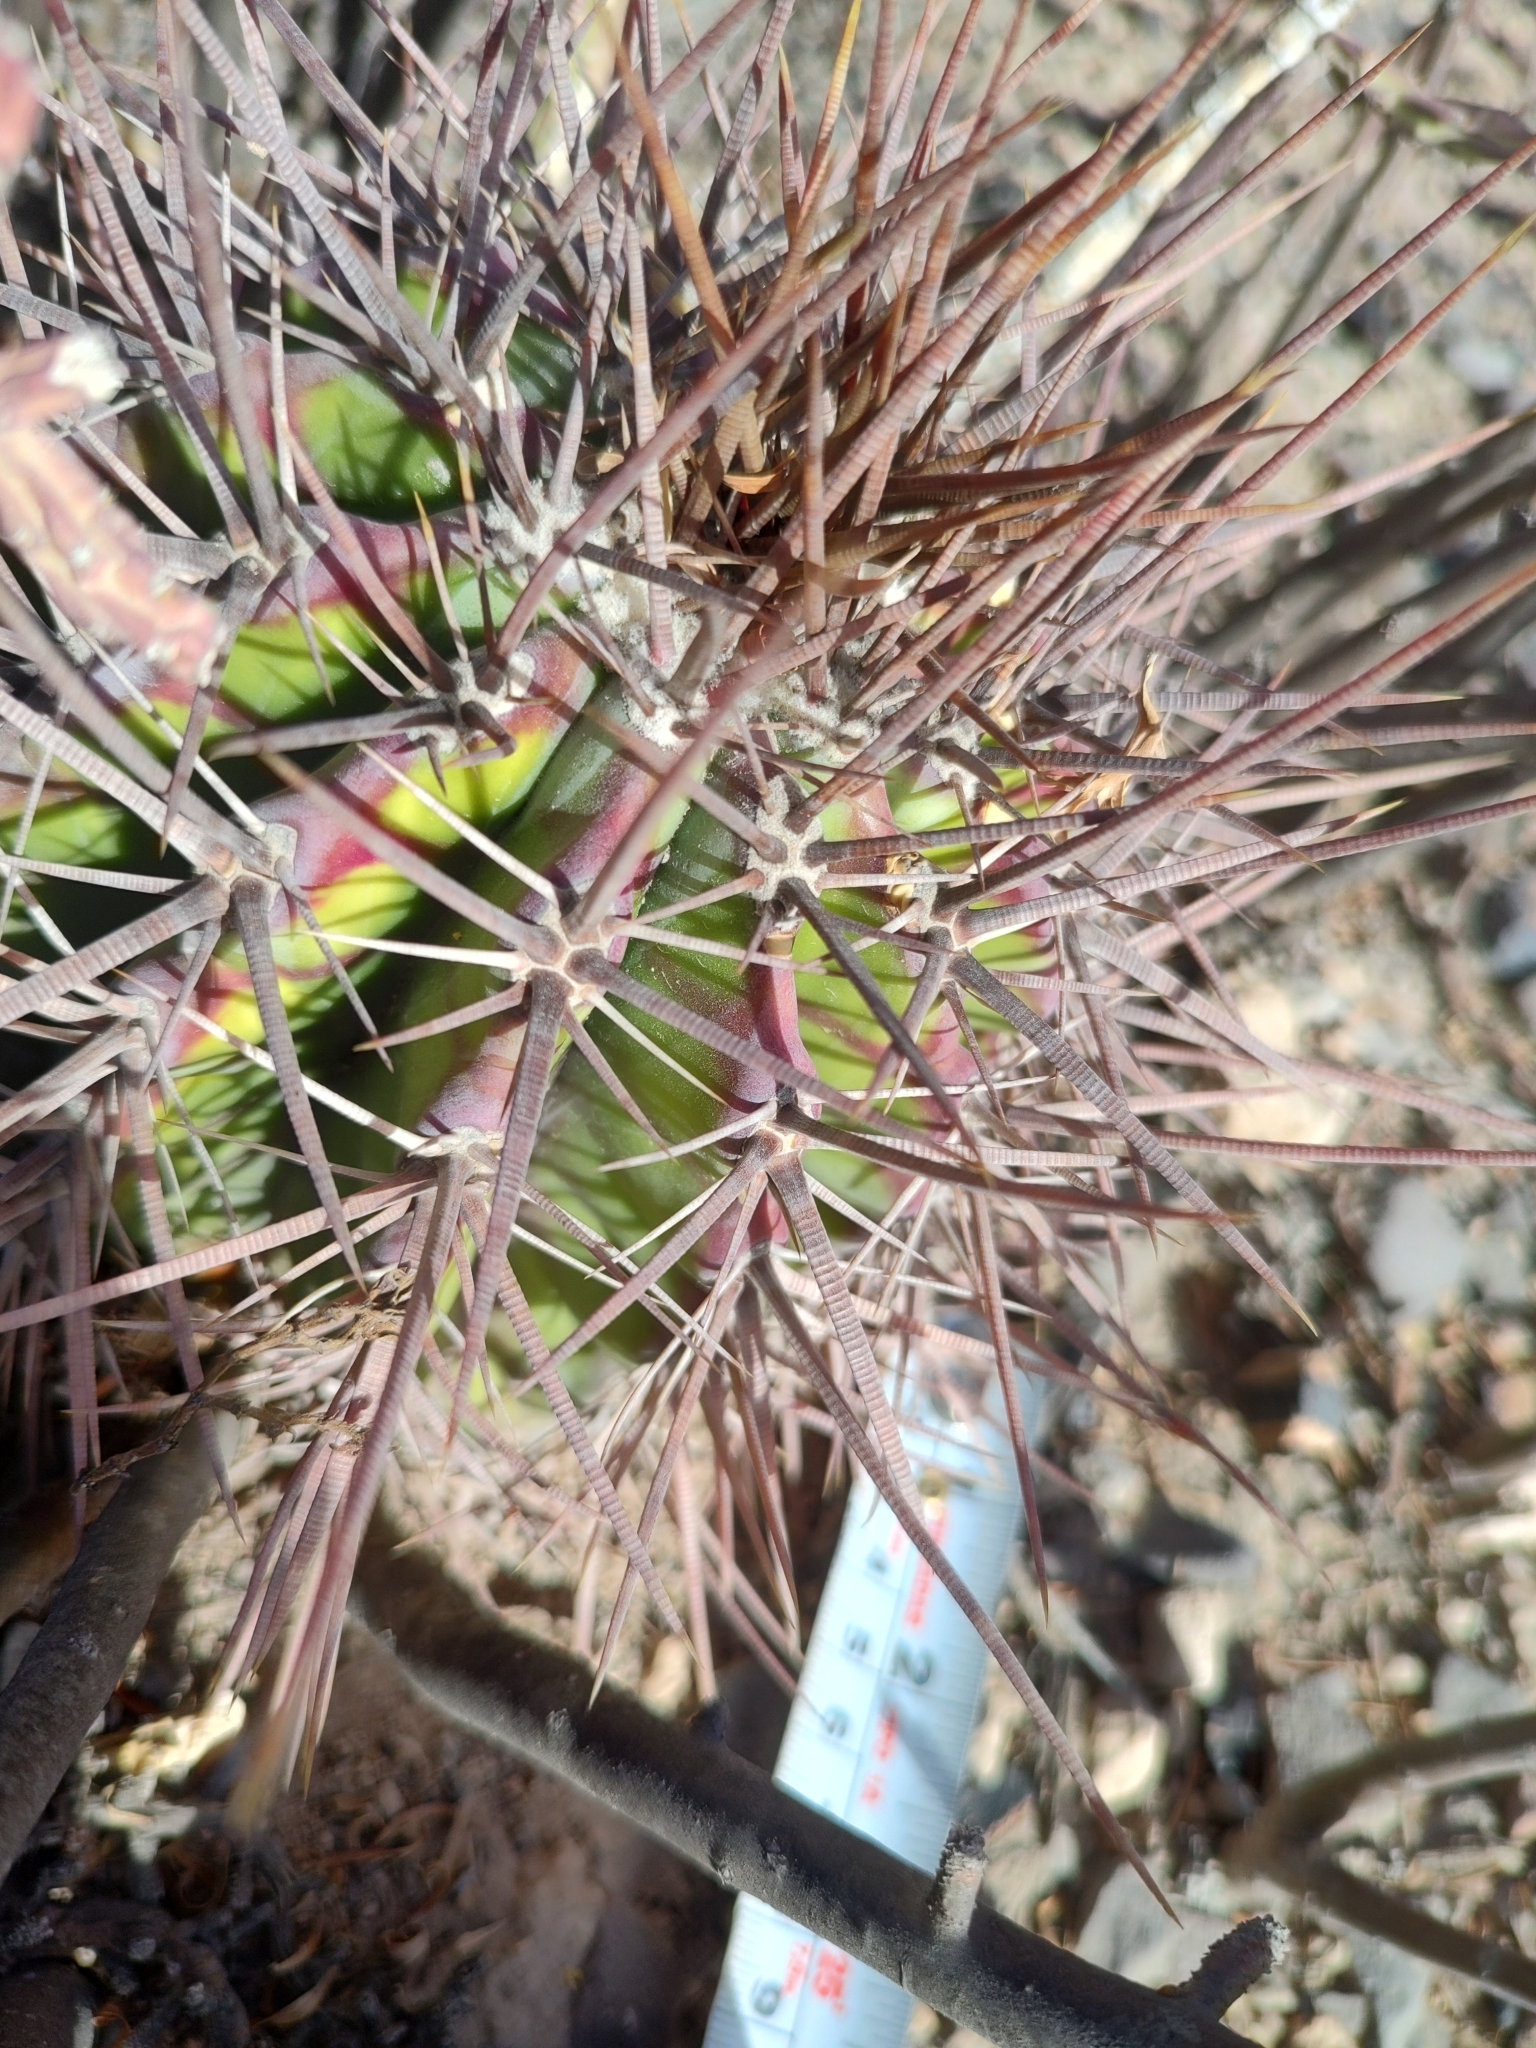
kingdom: Plantae
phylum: Tracheophyta
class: Magnoliopsida
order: Caryophyllales
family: Cactaceae
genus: Echinocactus
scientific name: Echinocactus platyacanthus
